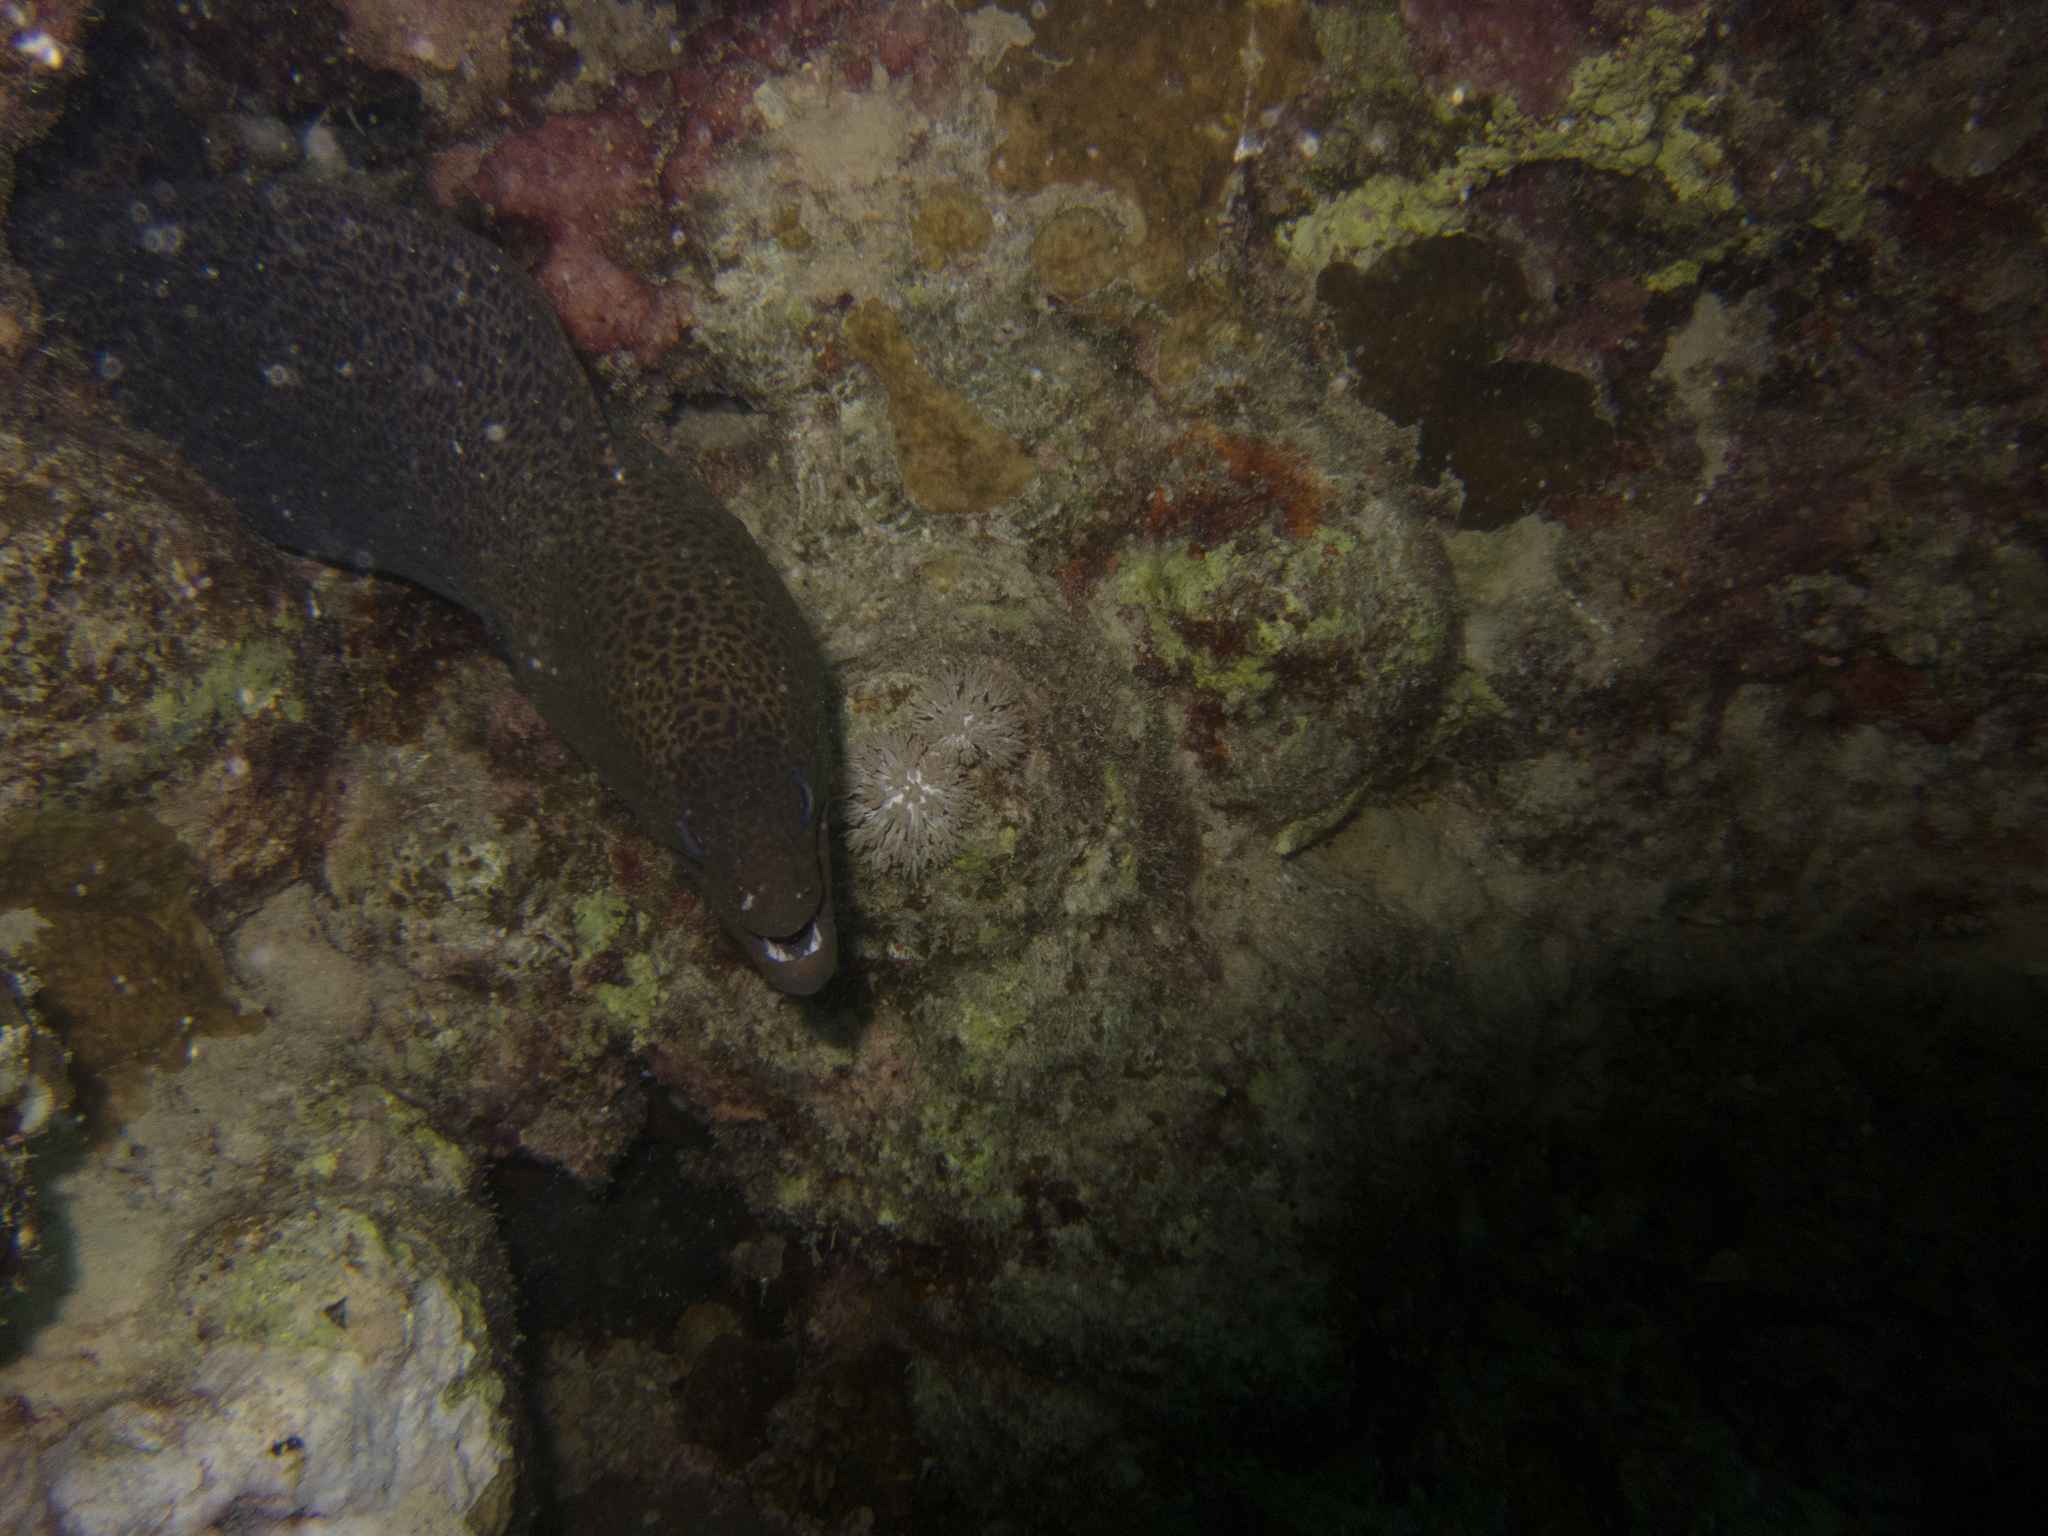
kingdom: Animalia
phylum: Chordata
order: Anguilliformes
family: Muraenidae
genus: Gymnothorax
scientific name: Gymnothorax javanicus
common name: Giant moray
